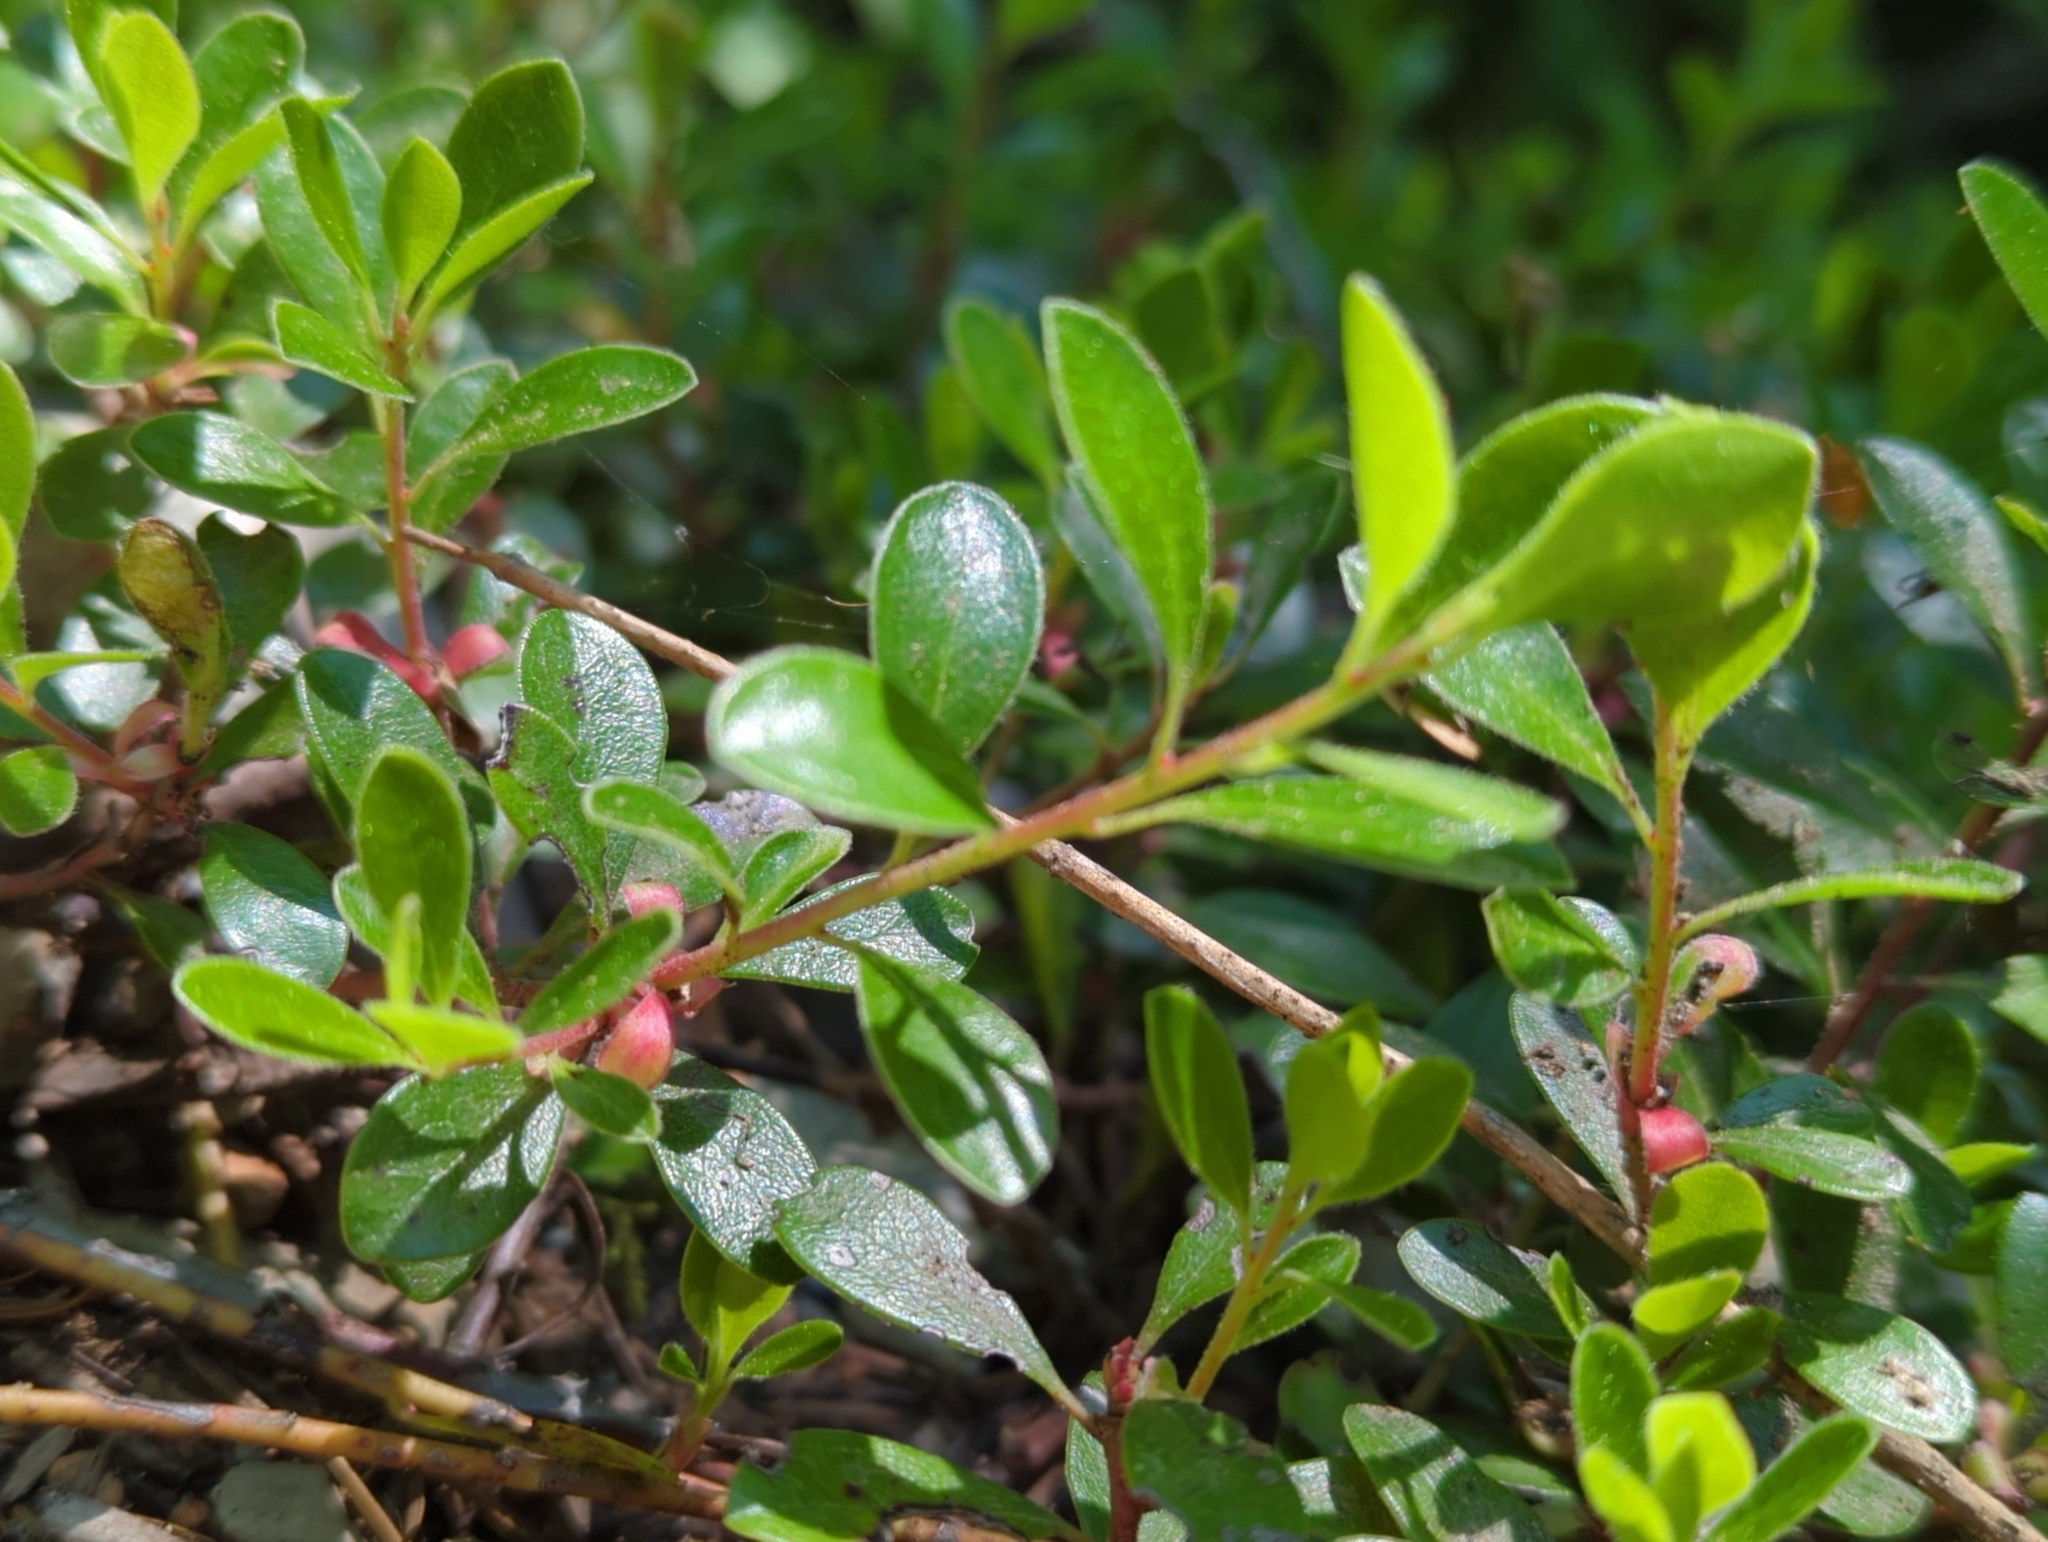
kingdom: Plantae
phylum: Tracheophyta
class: Magnoliopsida
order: Ericales
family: Ericaceae
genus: Arctostaphylos
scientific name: Arctostaphylos uva-ursi
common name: Bearberry
